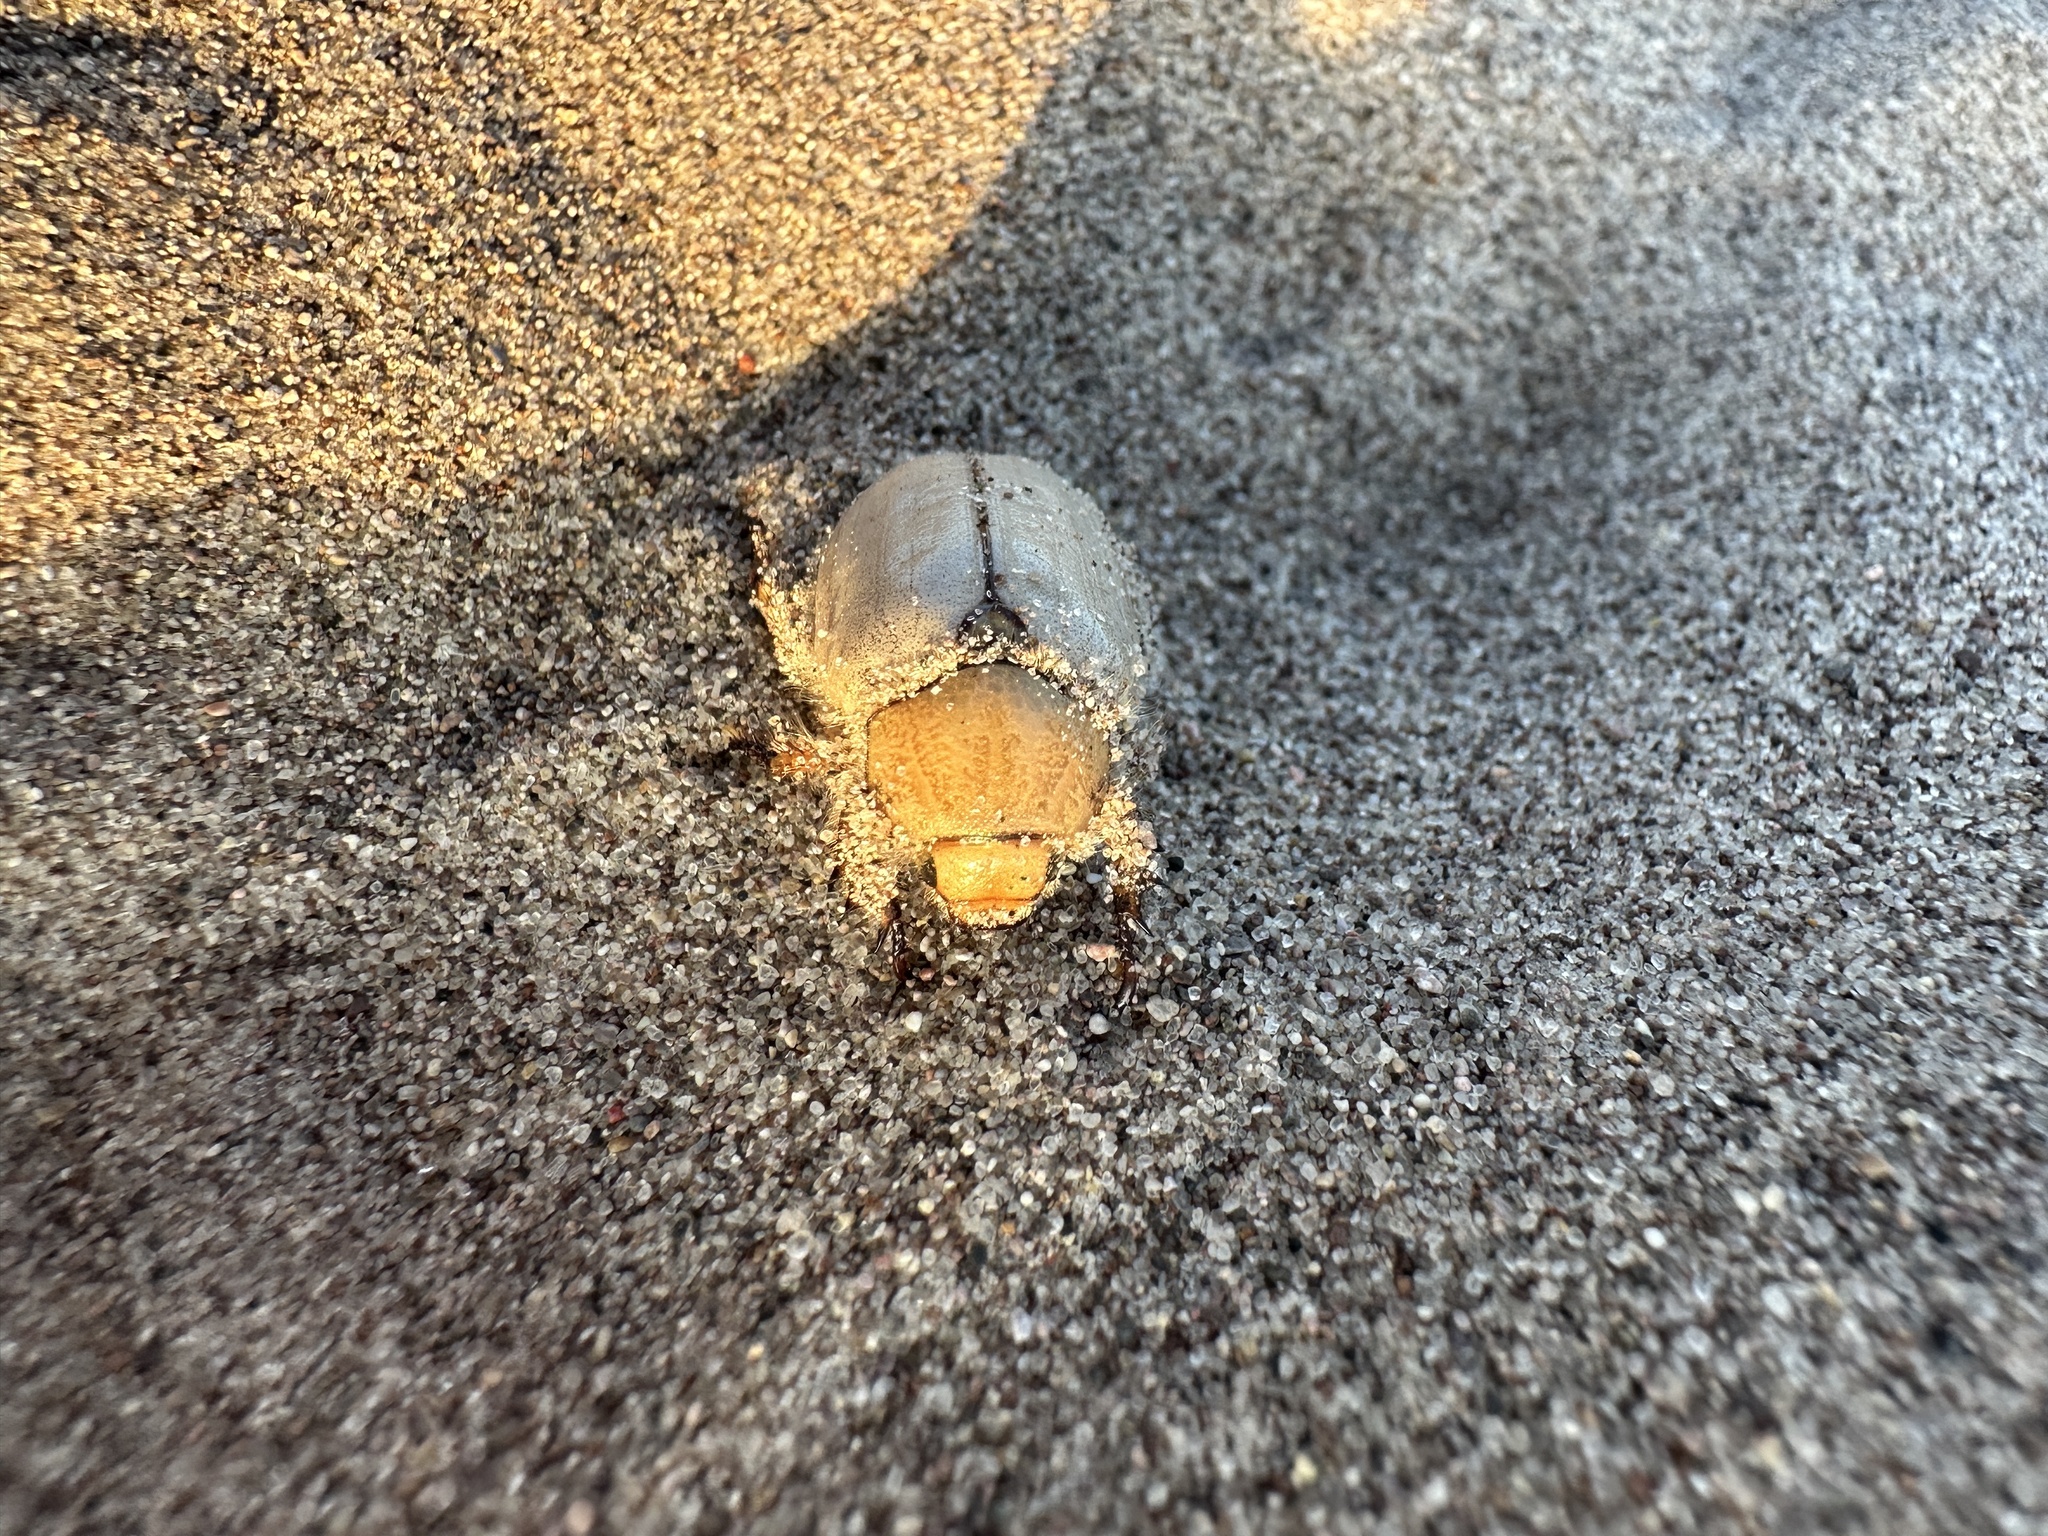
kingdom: Animalia
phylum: Arthropoda
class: Insecta
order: Coleoptera
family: Scarabaeidae
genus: Pseudocotalpa
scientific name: Pseudocotalpa giulianii
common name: Giuliani's dune scarab beetle
